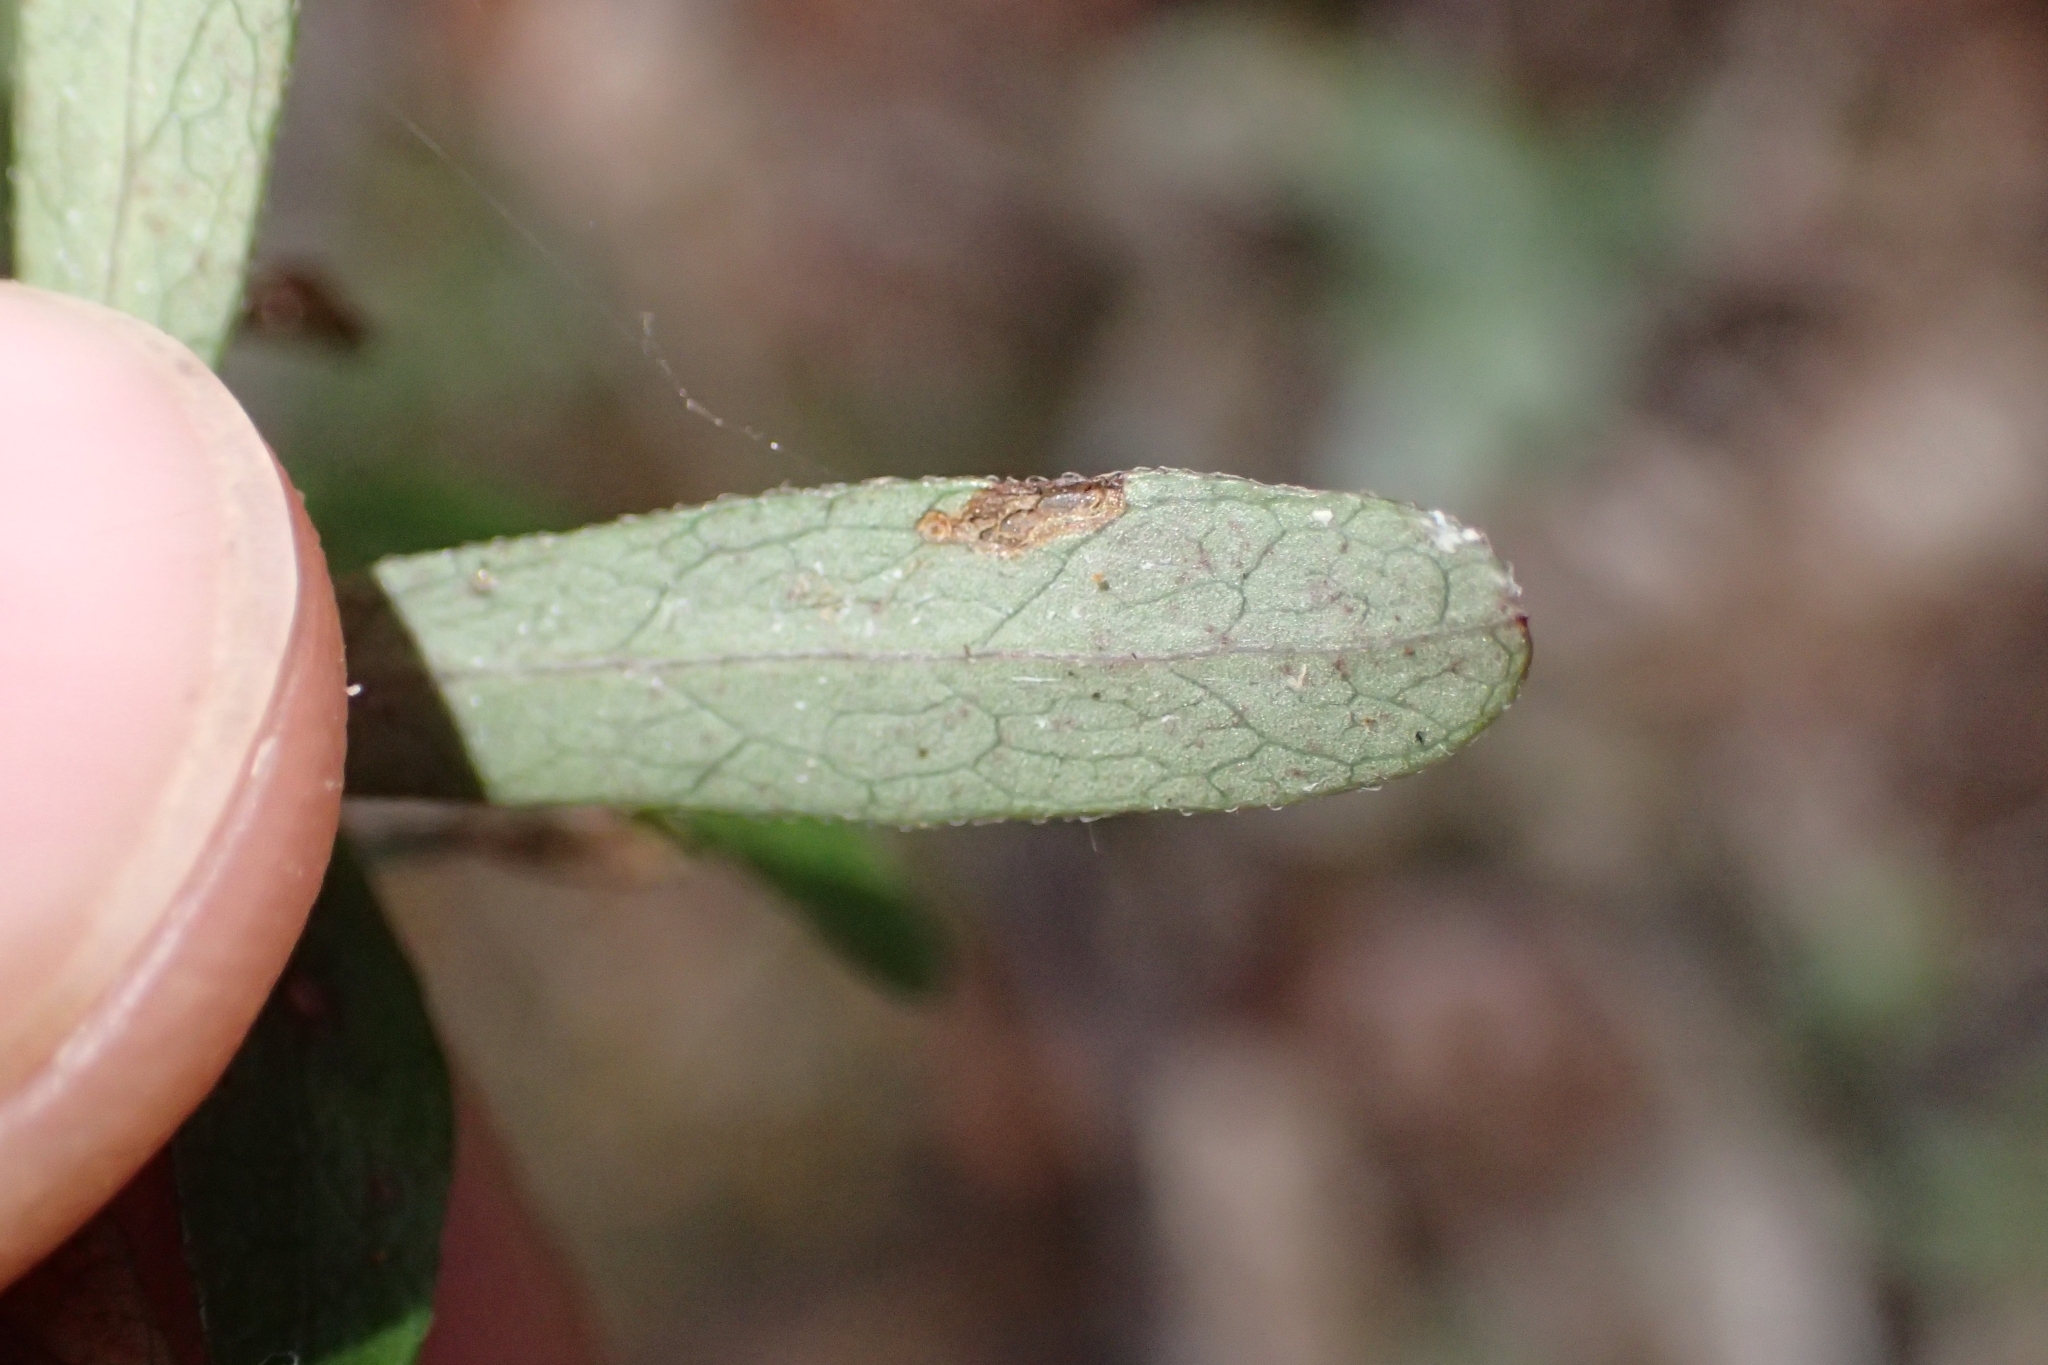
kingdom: Plantae
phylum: Tracheophyta
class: Magnoliopsida
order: Apiales
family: Pittosporaceae
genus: Pittosporum
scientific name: Pittosporum pimeleoides
